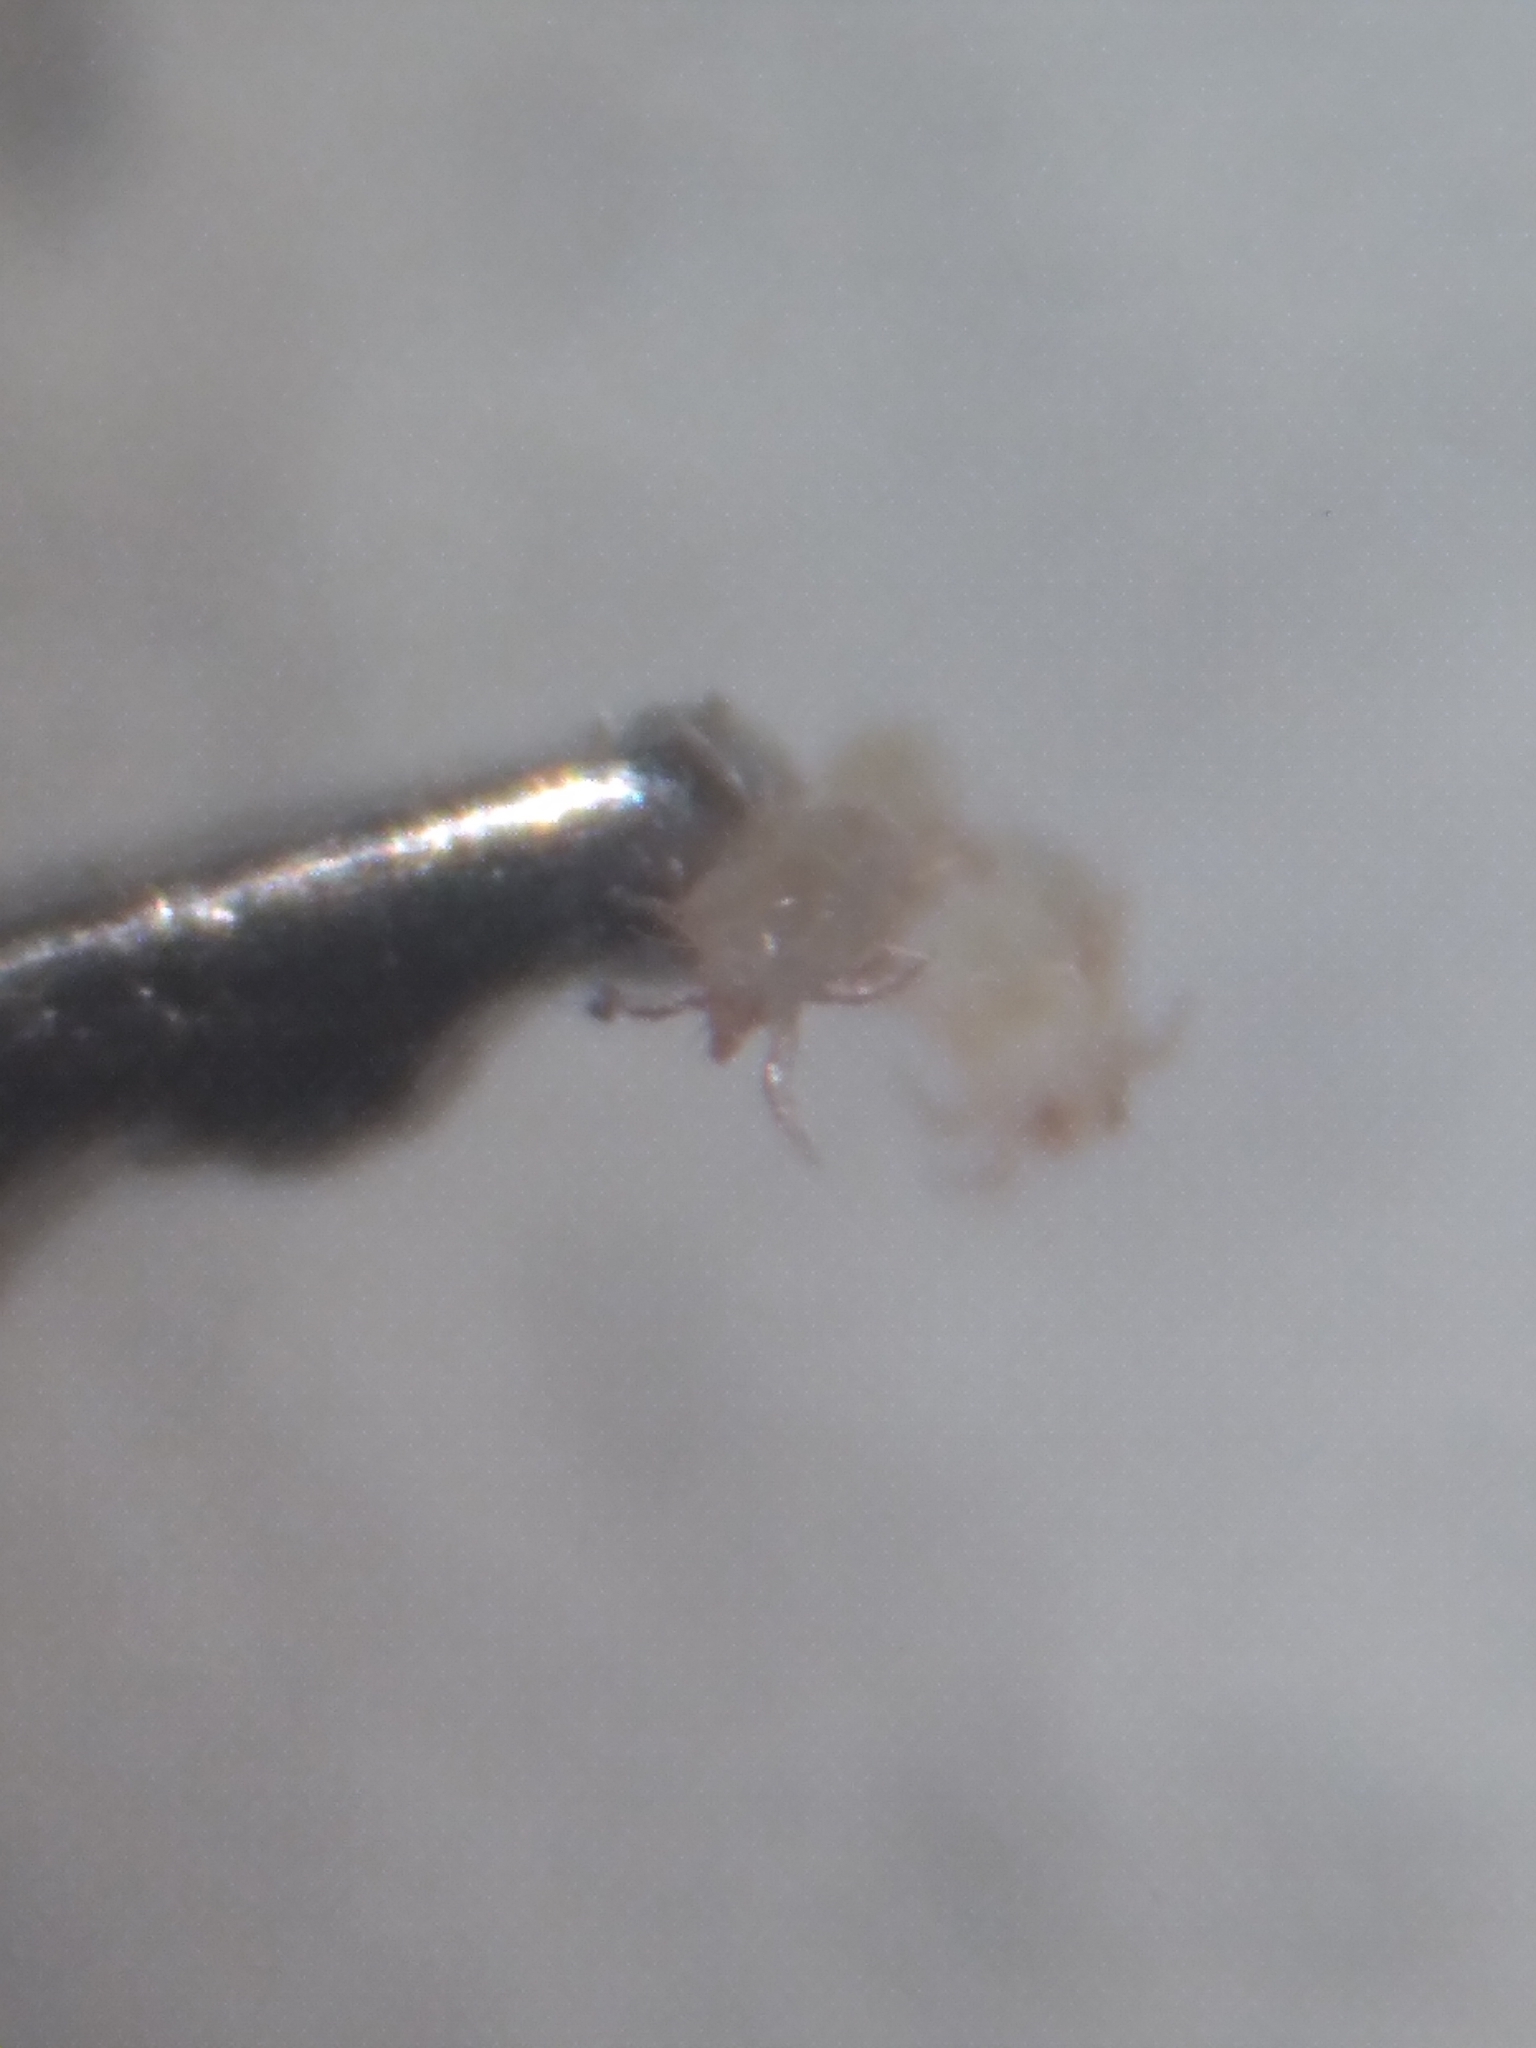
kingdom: Animalia
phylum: Arthropoda
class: Arachnida
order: Sarcoptiformes
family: Acaridae
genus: Acarus
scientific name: Acarus siro
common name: Grain mite
